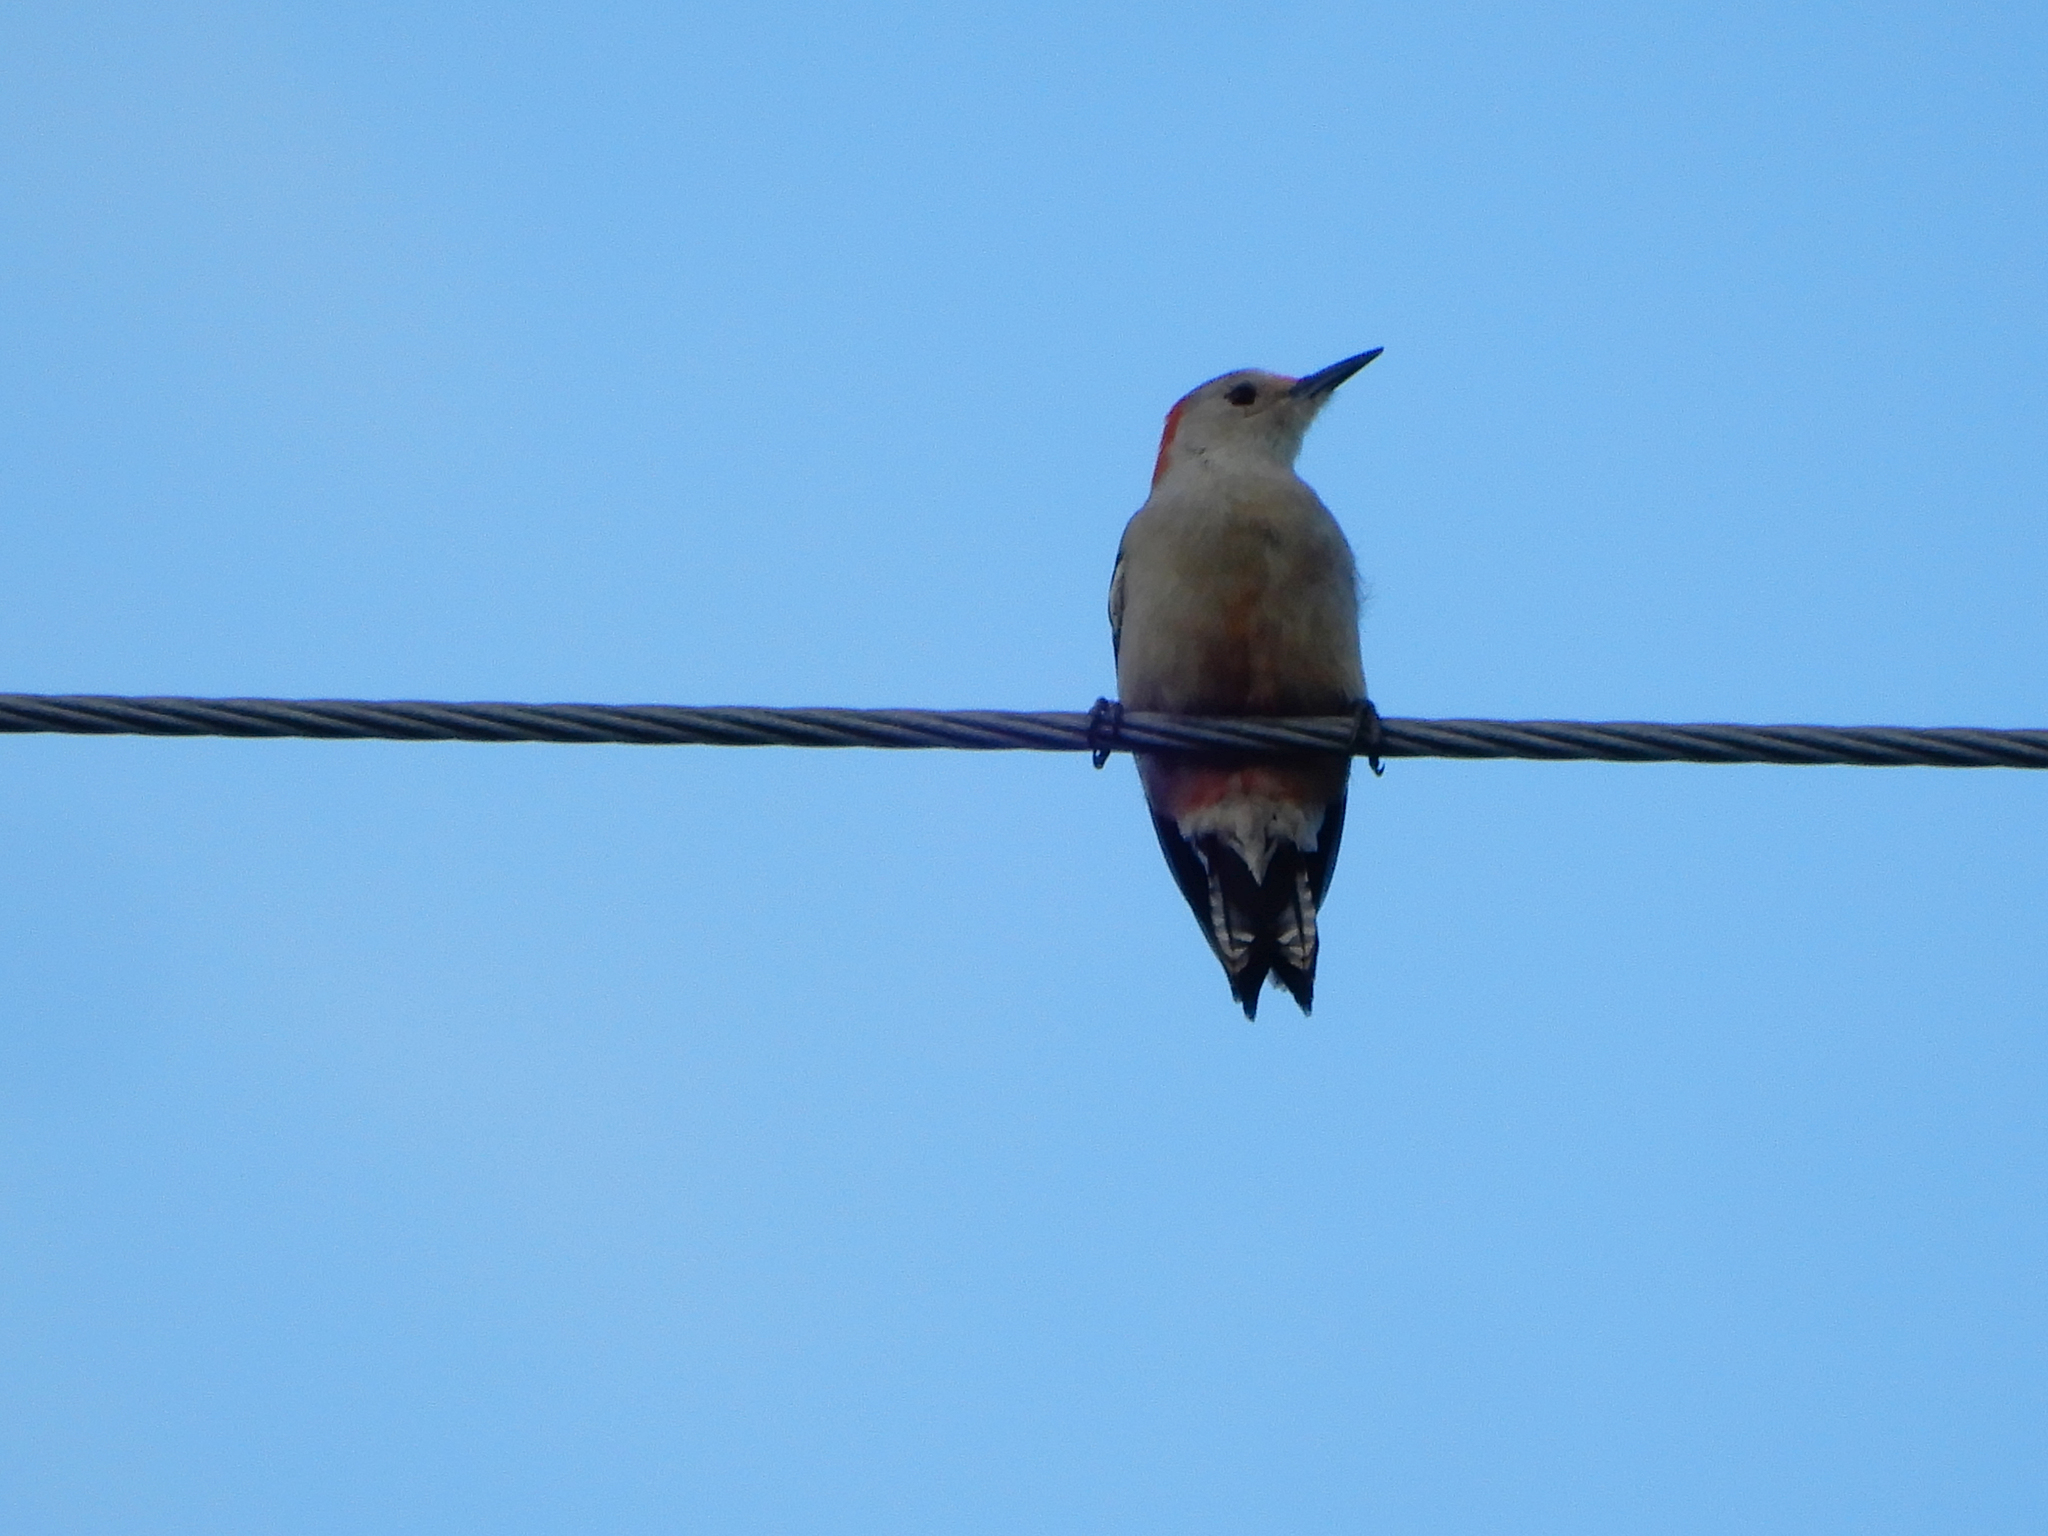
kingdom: Animalia
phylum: Chordata
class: Aves
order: Piciformes
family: Picidae
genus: Melanerpes
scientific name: Melanerpes carolinus
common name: Red-bellied woodpecker
